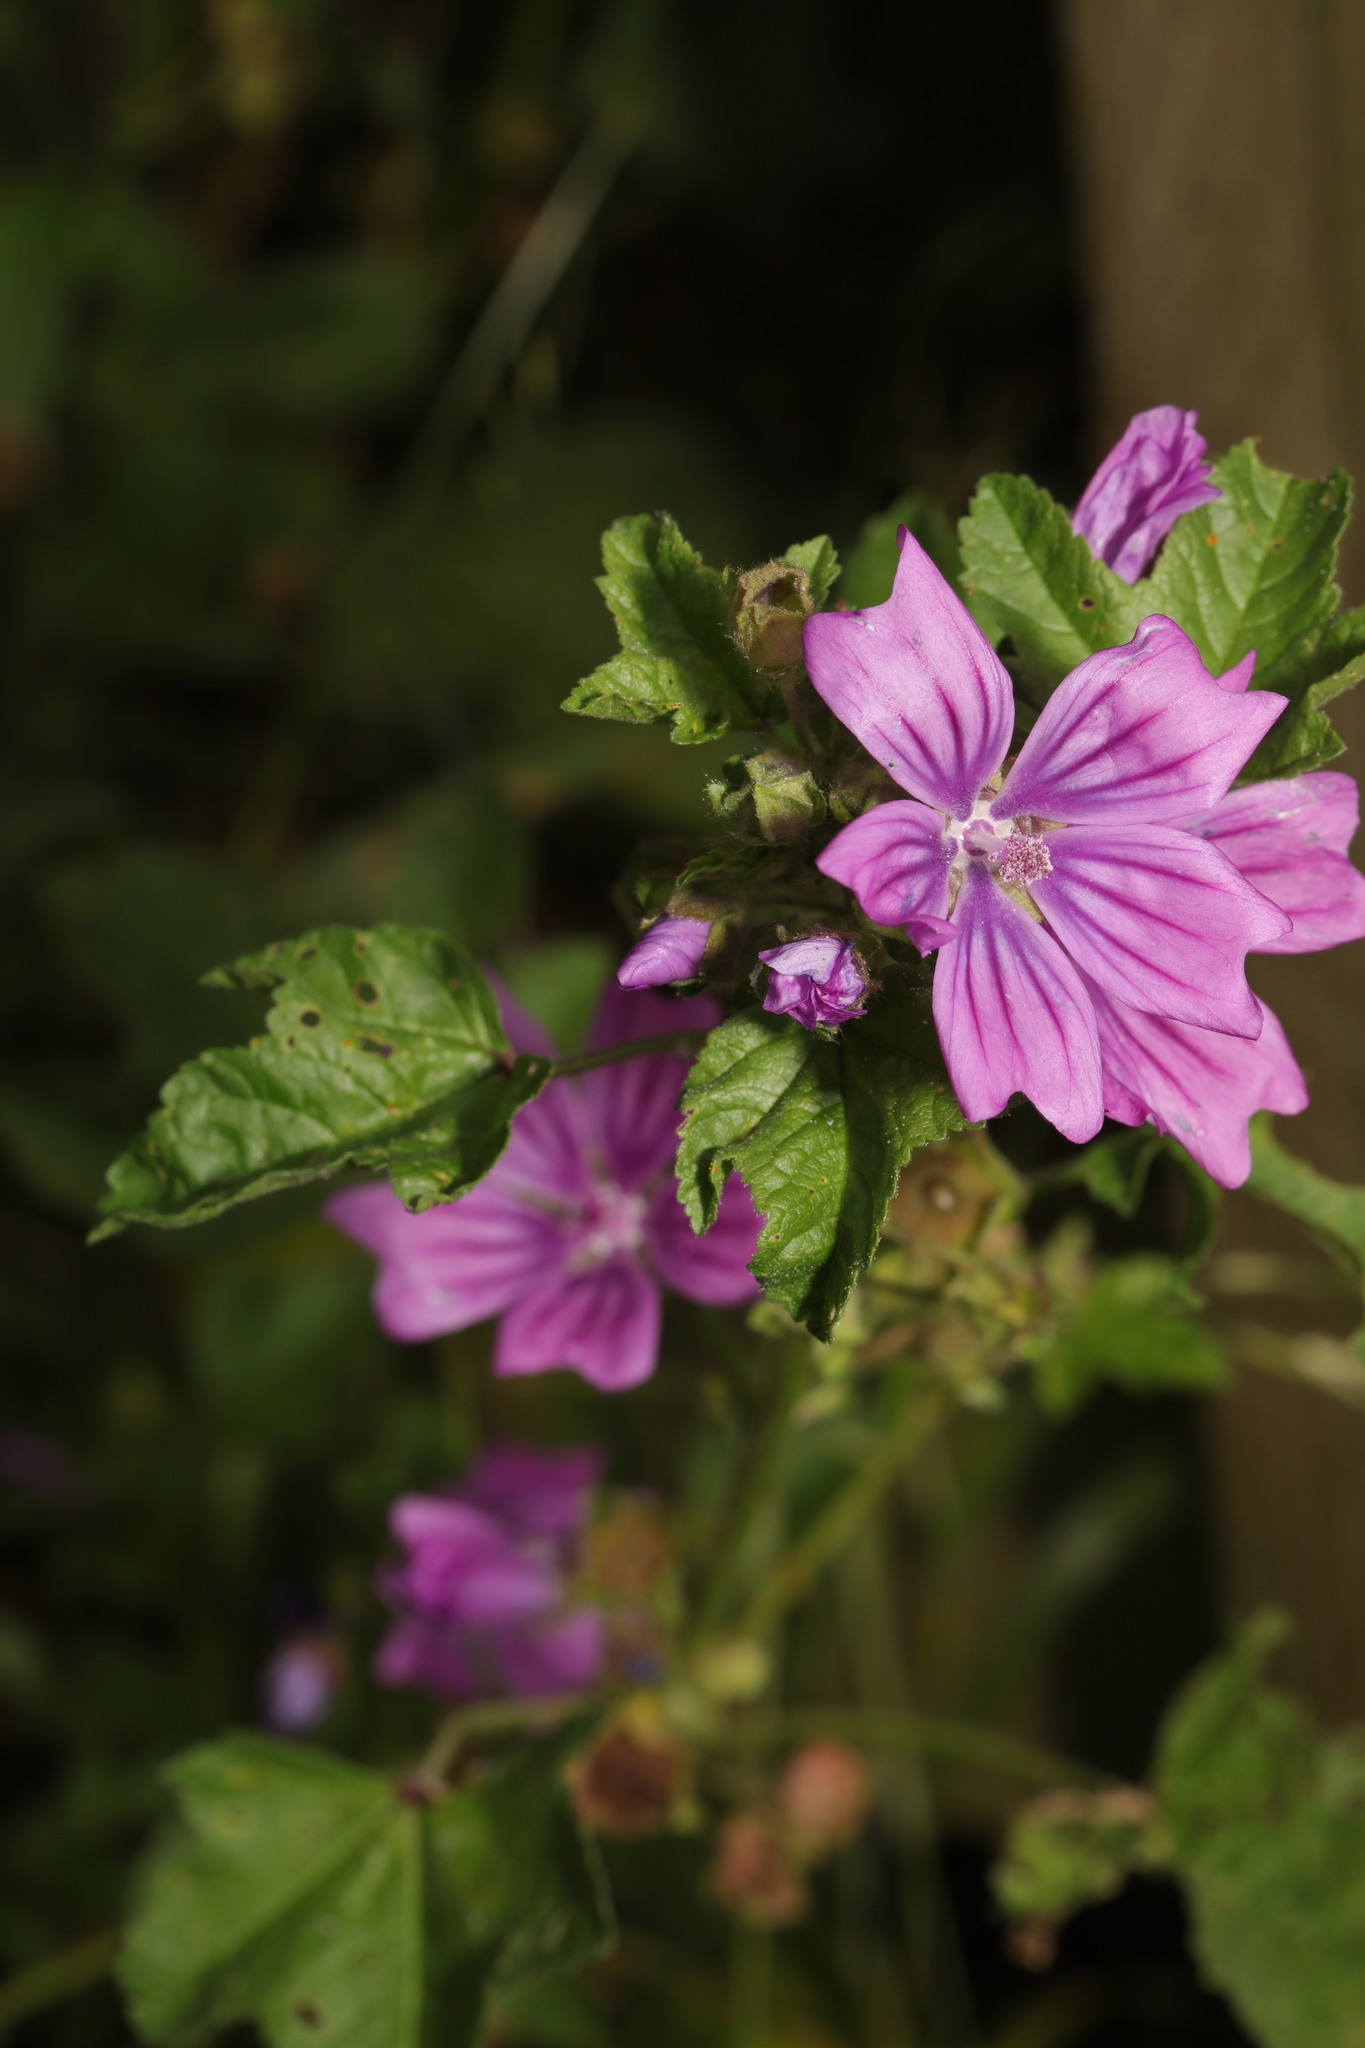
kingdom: Plantae
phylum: Tracheophyta
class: Magnoliopsida
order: Malvales
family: Malvaceae
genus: Malva
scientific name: Malva sylvestris
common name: Common mallow
